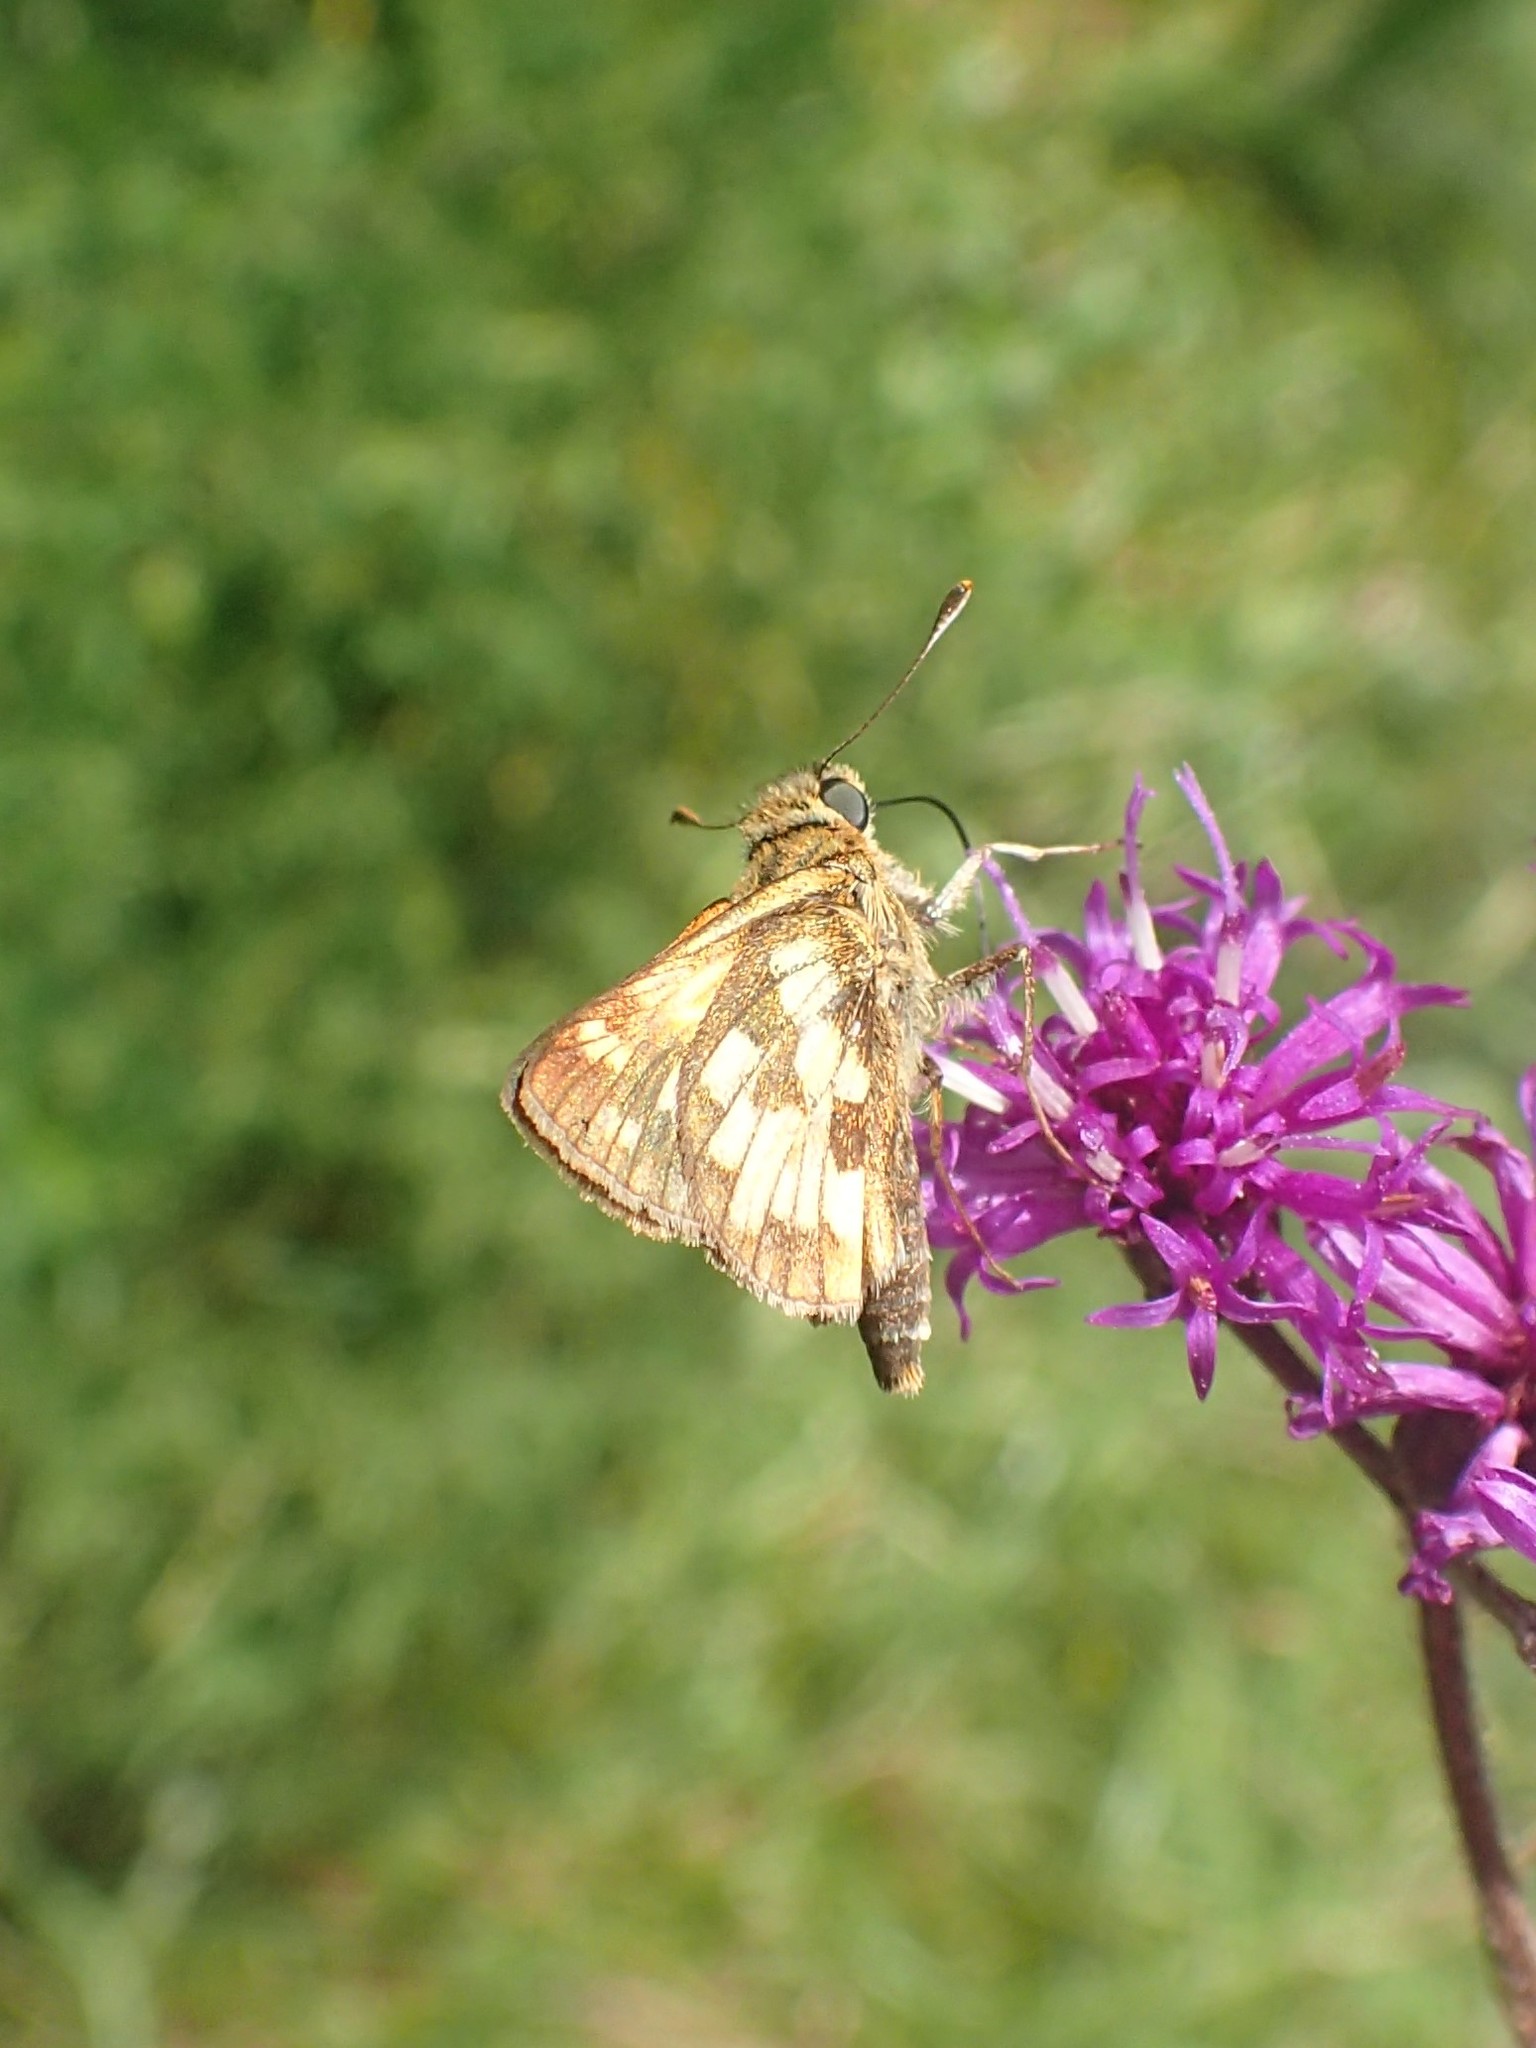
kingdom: Animalia
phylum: Arthropoda
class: Insecta
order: Lepidoptera
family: Hesperiidae
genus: Polites
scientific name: Polites coras
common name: Peck's skipper
